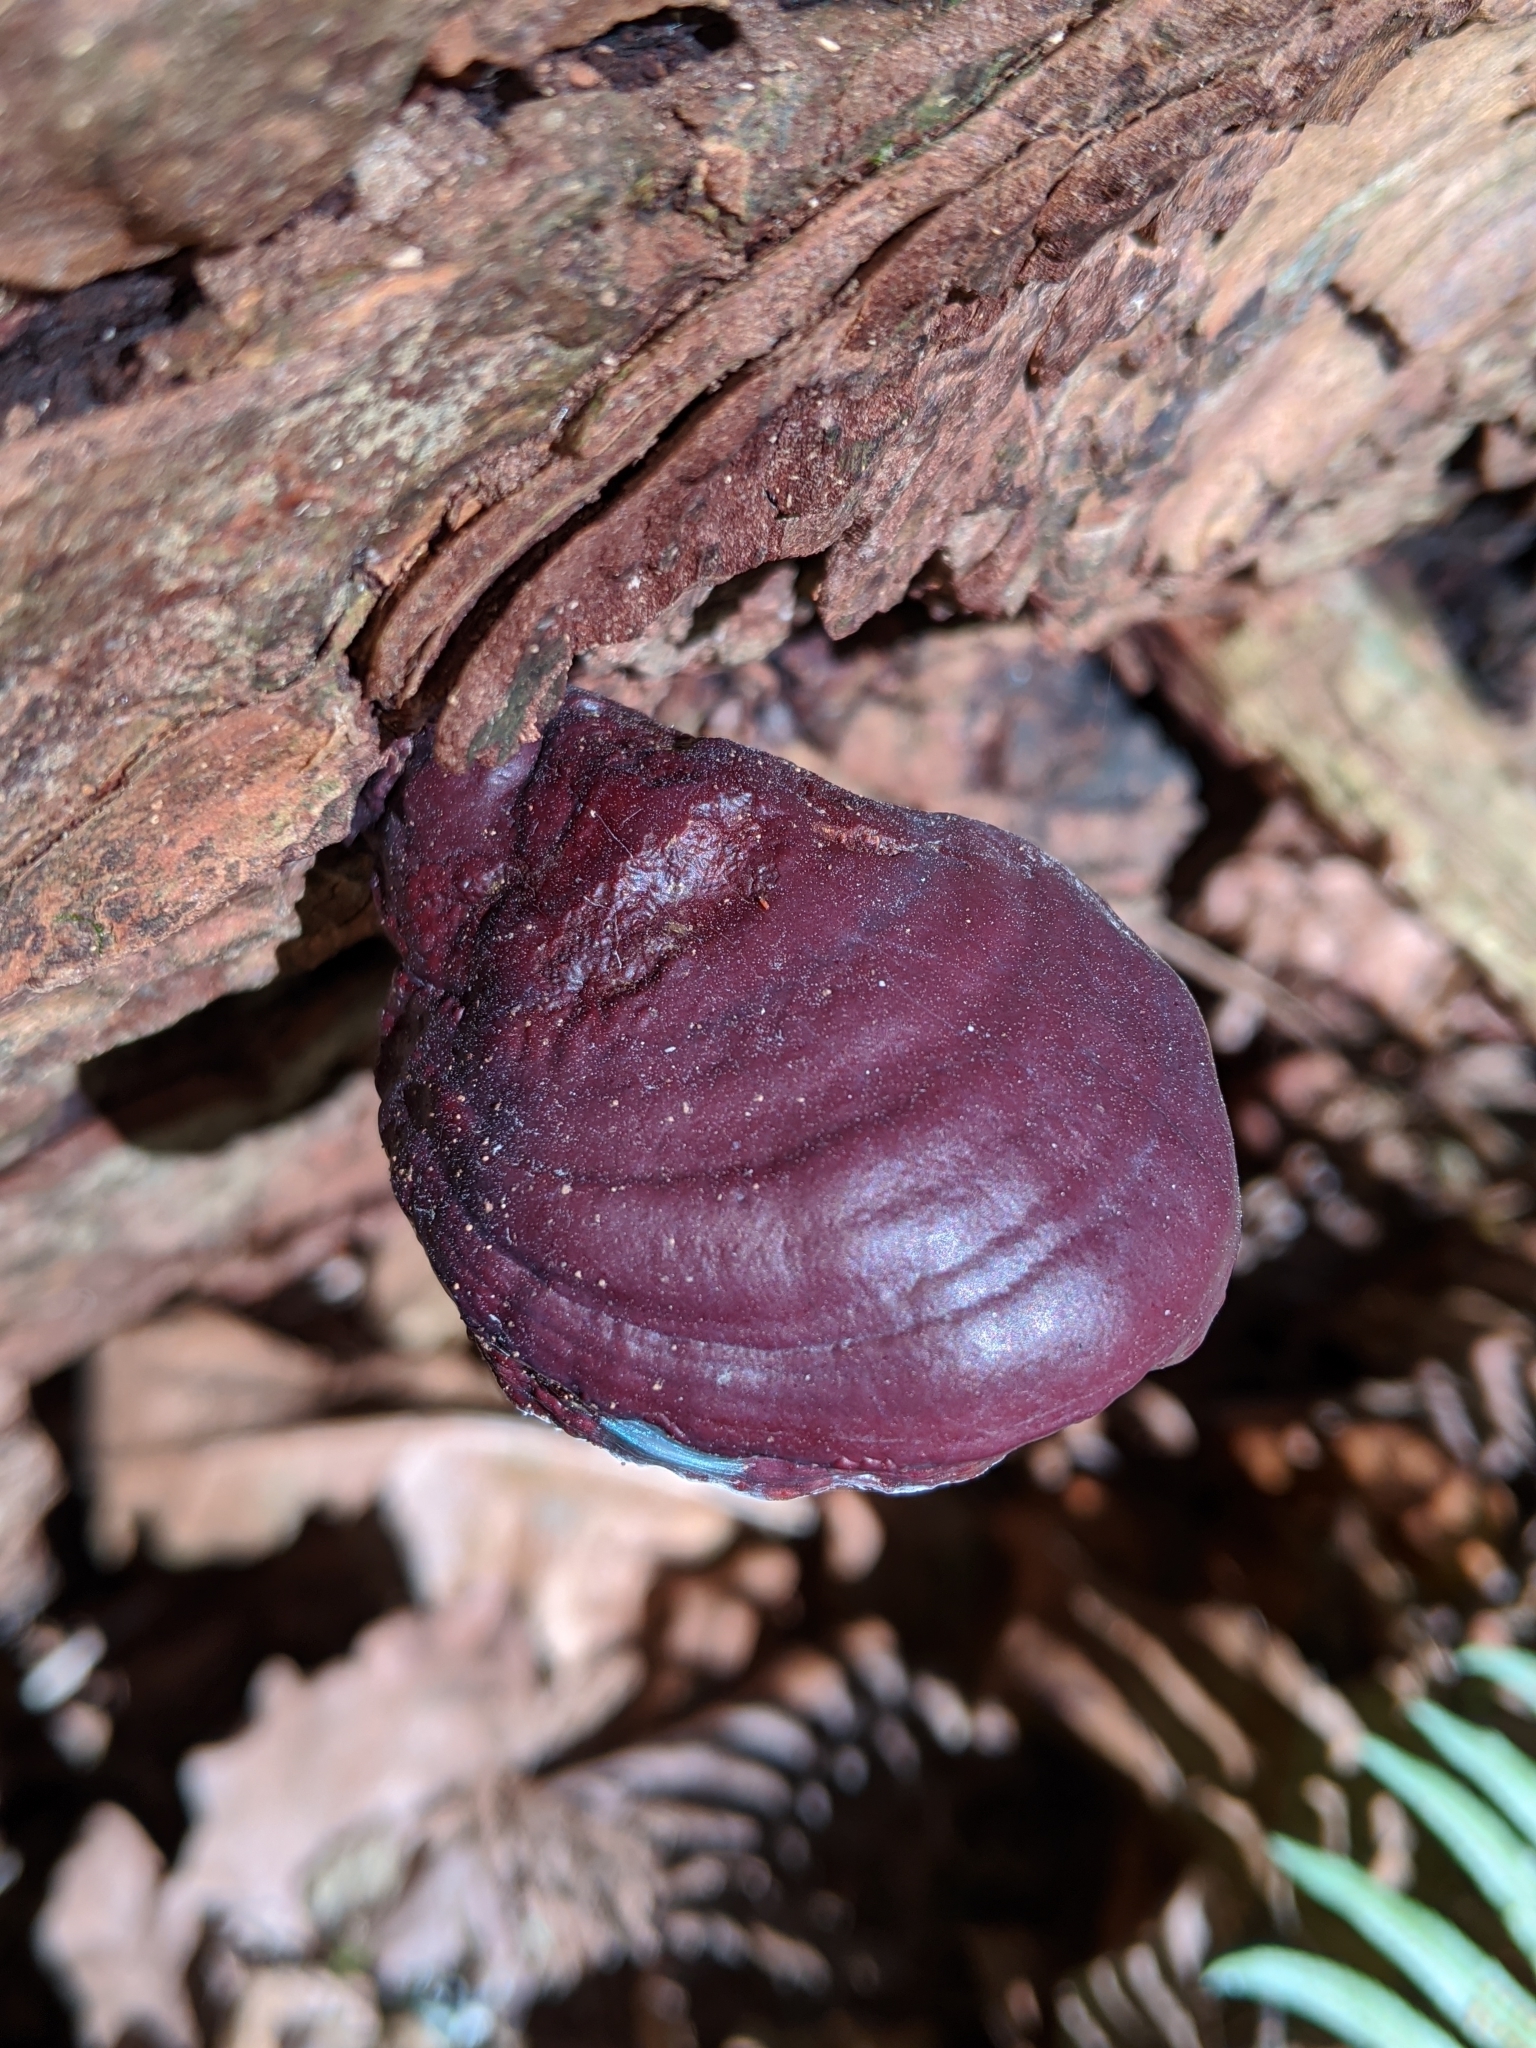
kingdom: Fungi
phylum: Basidiomycota
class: Agaricomycetes
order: Polyporales
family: Polyporaceae
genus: Ganoderma
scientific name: Ganoderma oregonense
